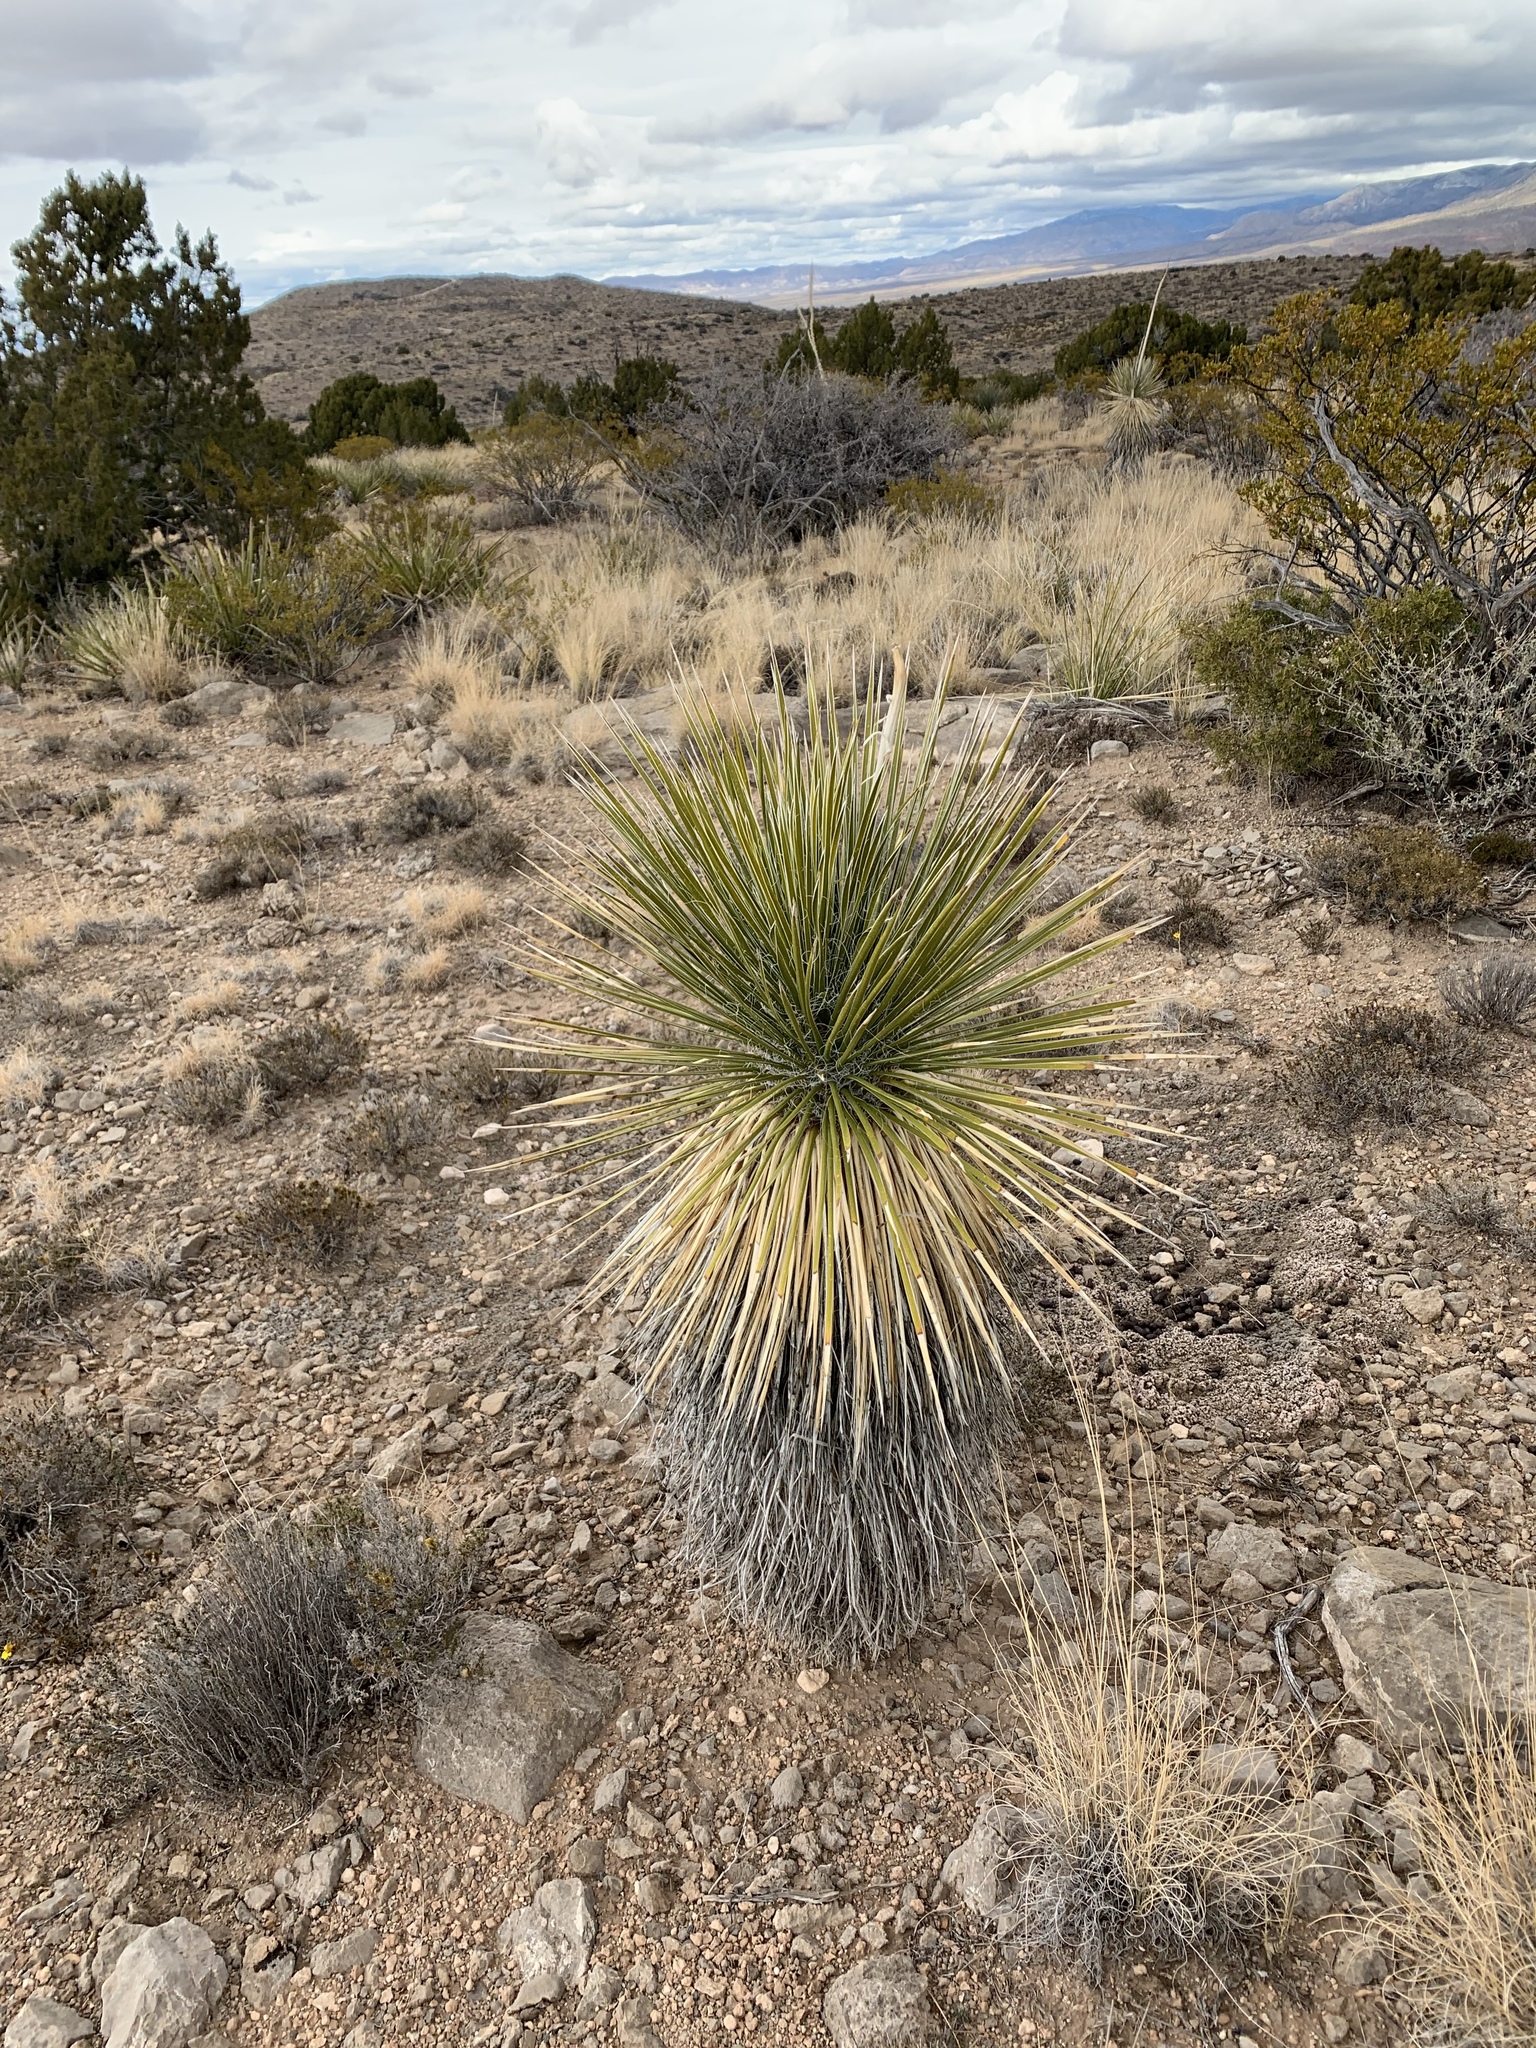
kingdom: Plantae
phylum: Tracheophyta
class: Liliopsida
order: Asparagales
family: Asparagaceae
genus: Yucca
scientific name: Yucca elata
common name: Palmella
